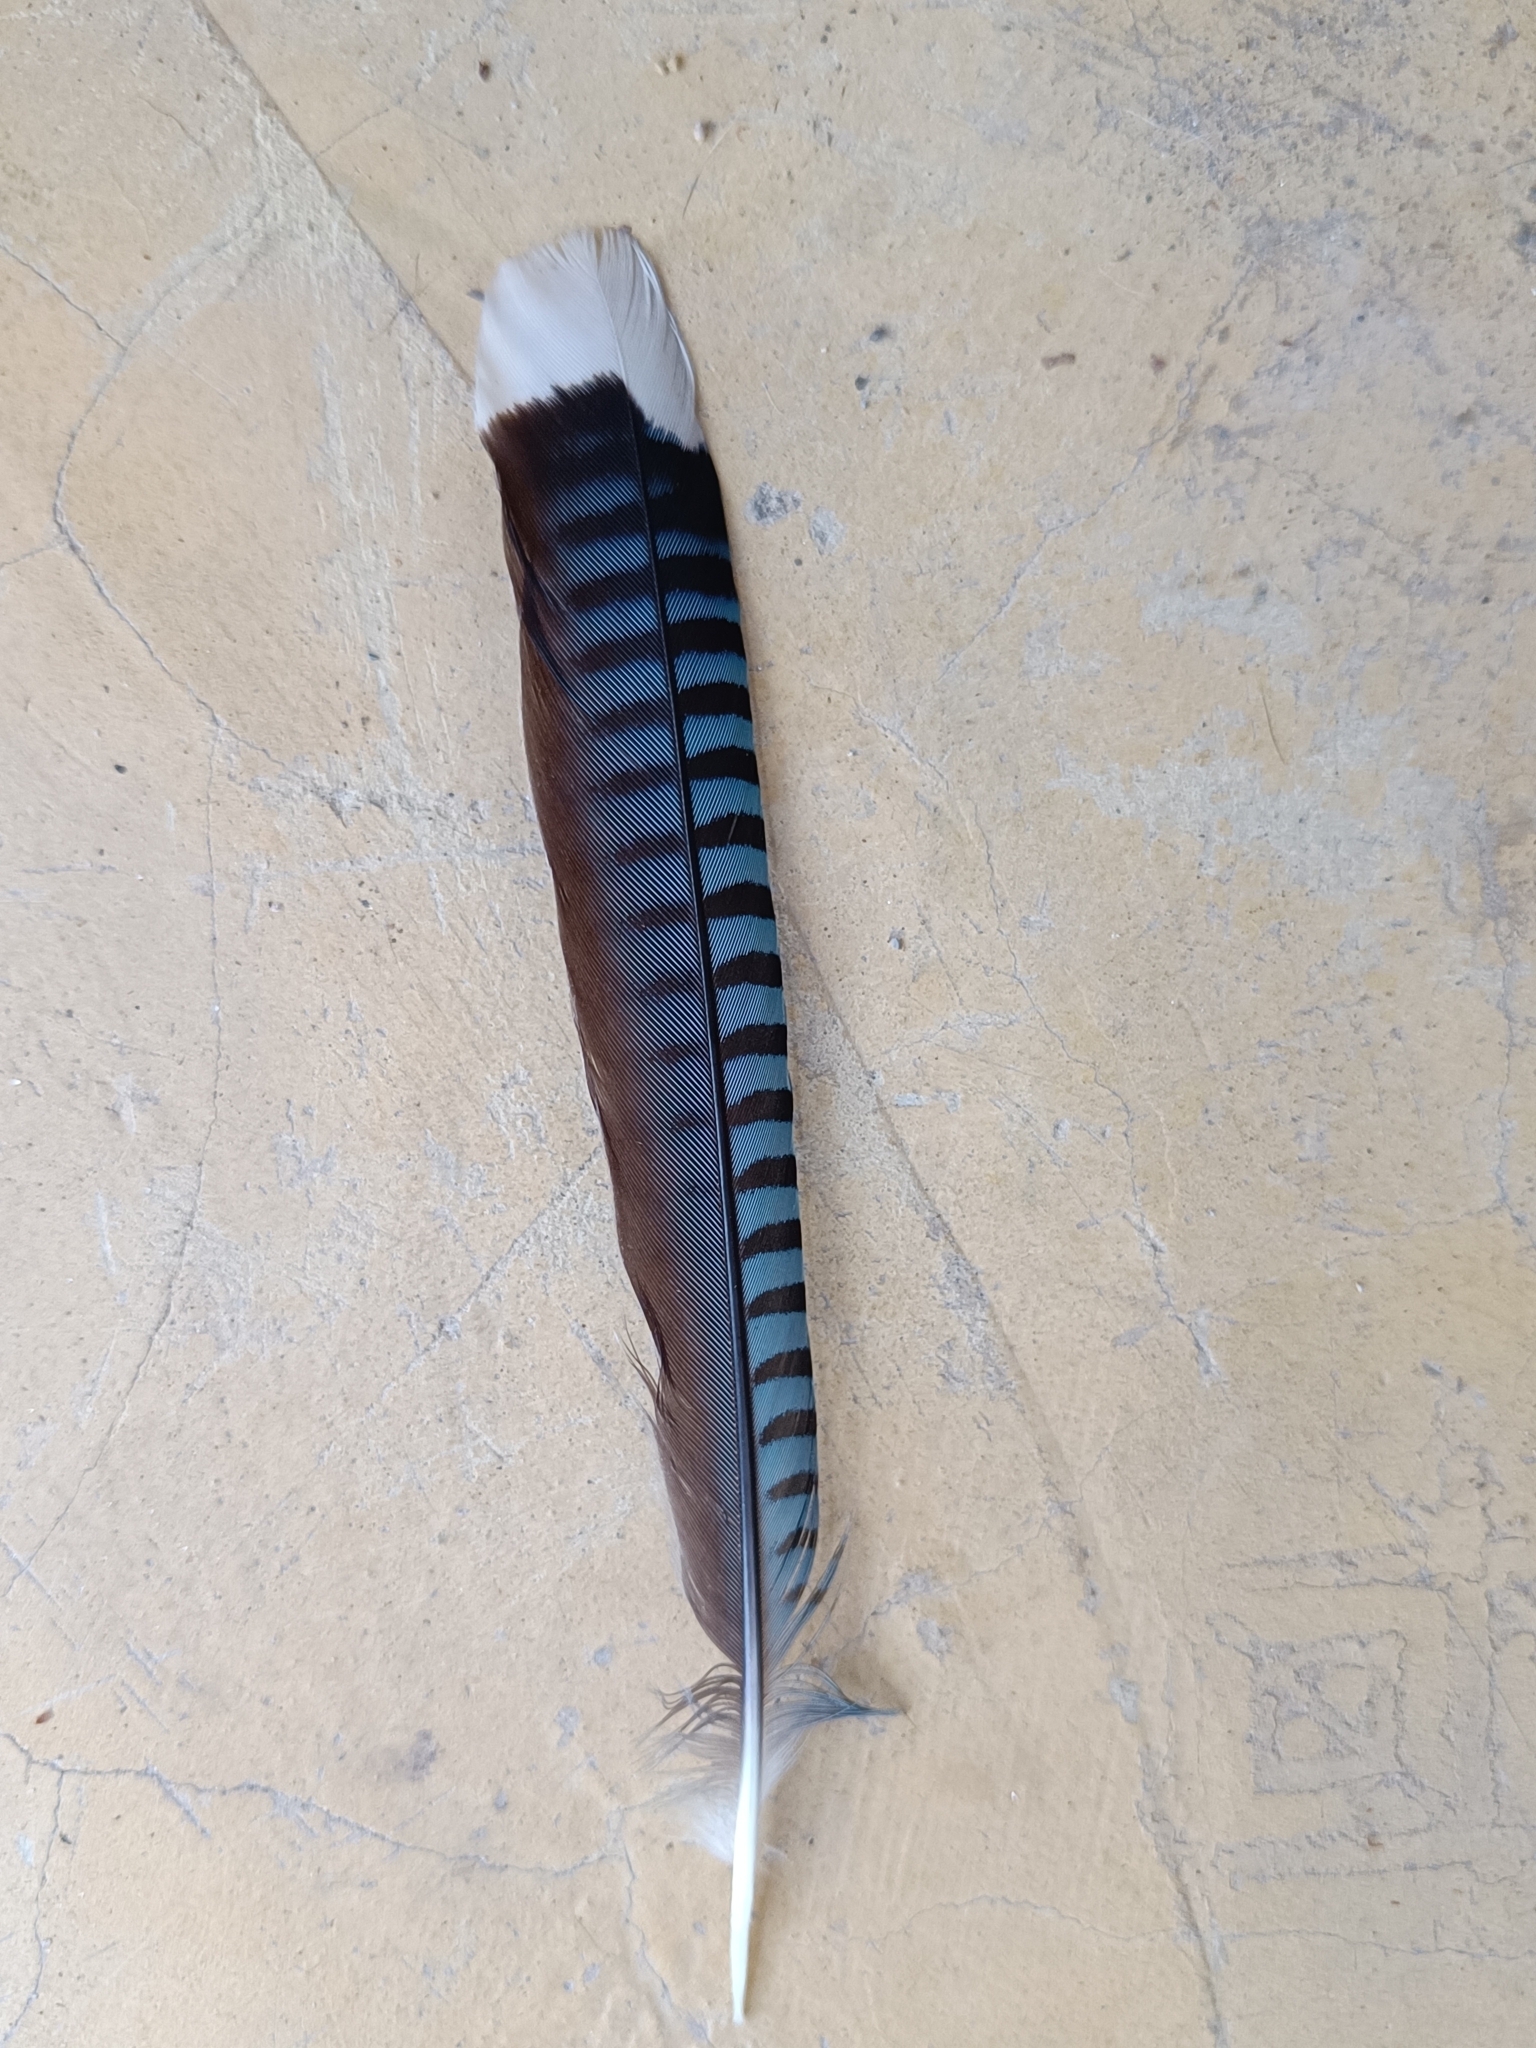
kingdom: Animalia
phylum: Chordata
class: Aves
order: Passeriformes
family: Corvidae
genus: Garrulus
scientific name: Garrulus lanceolatus
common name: Black-headed jay
